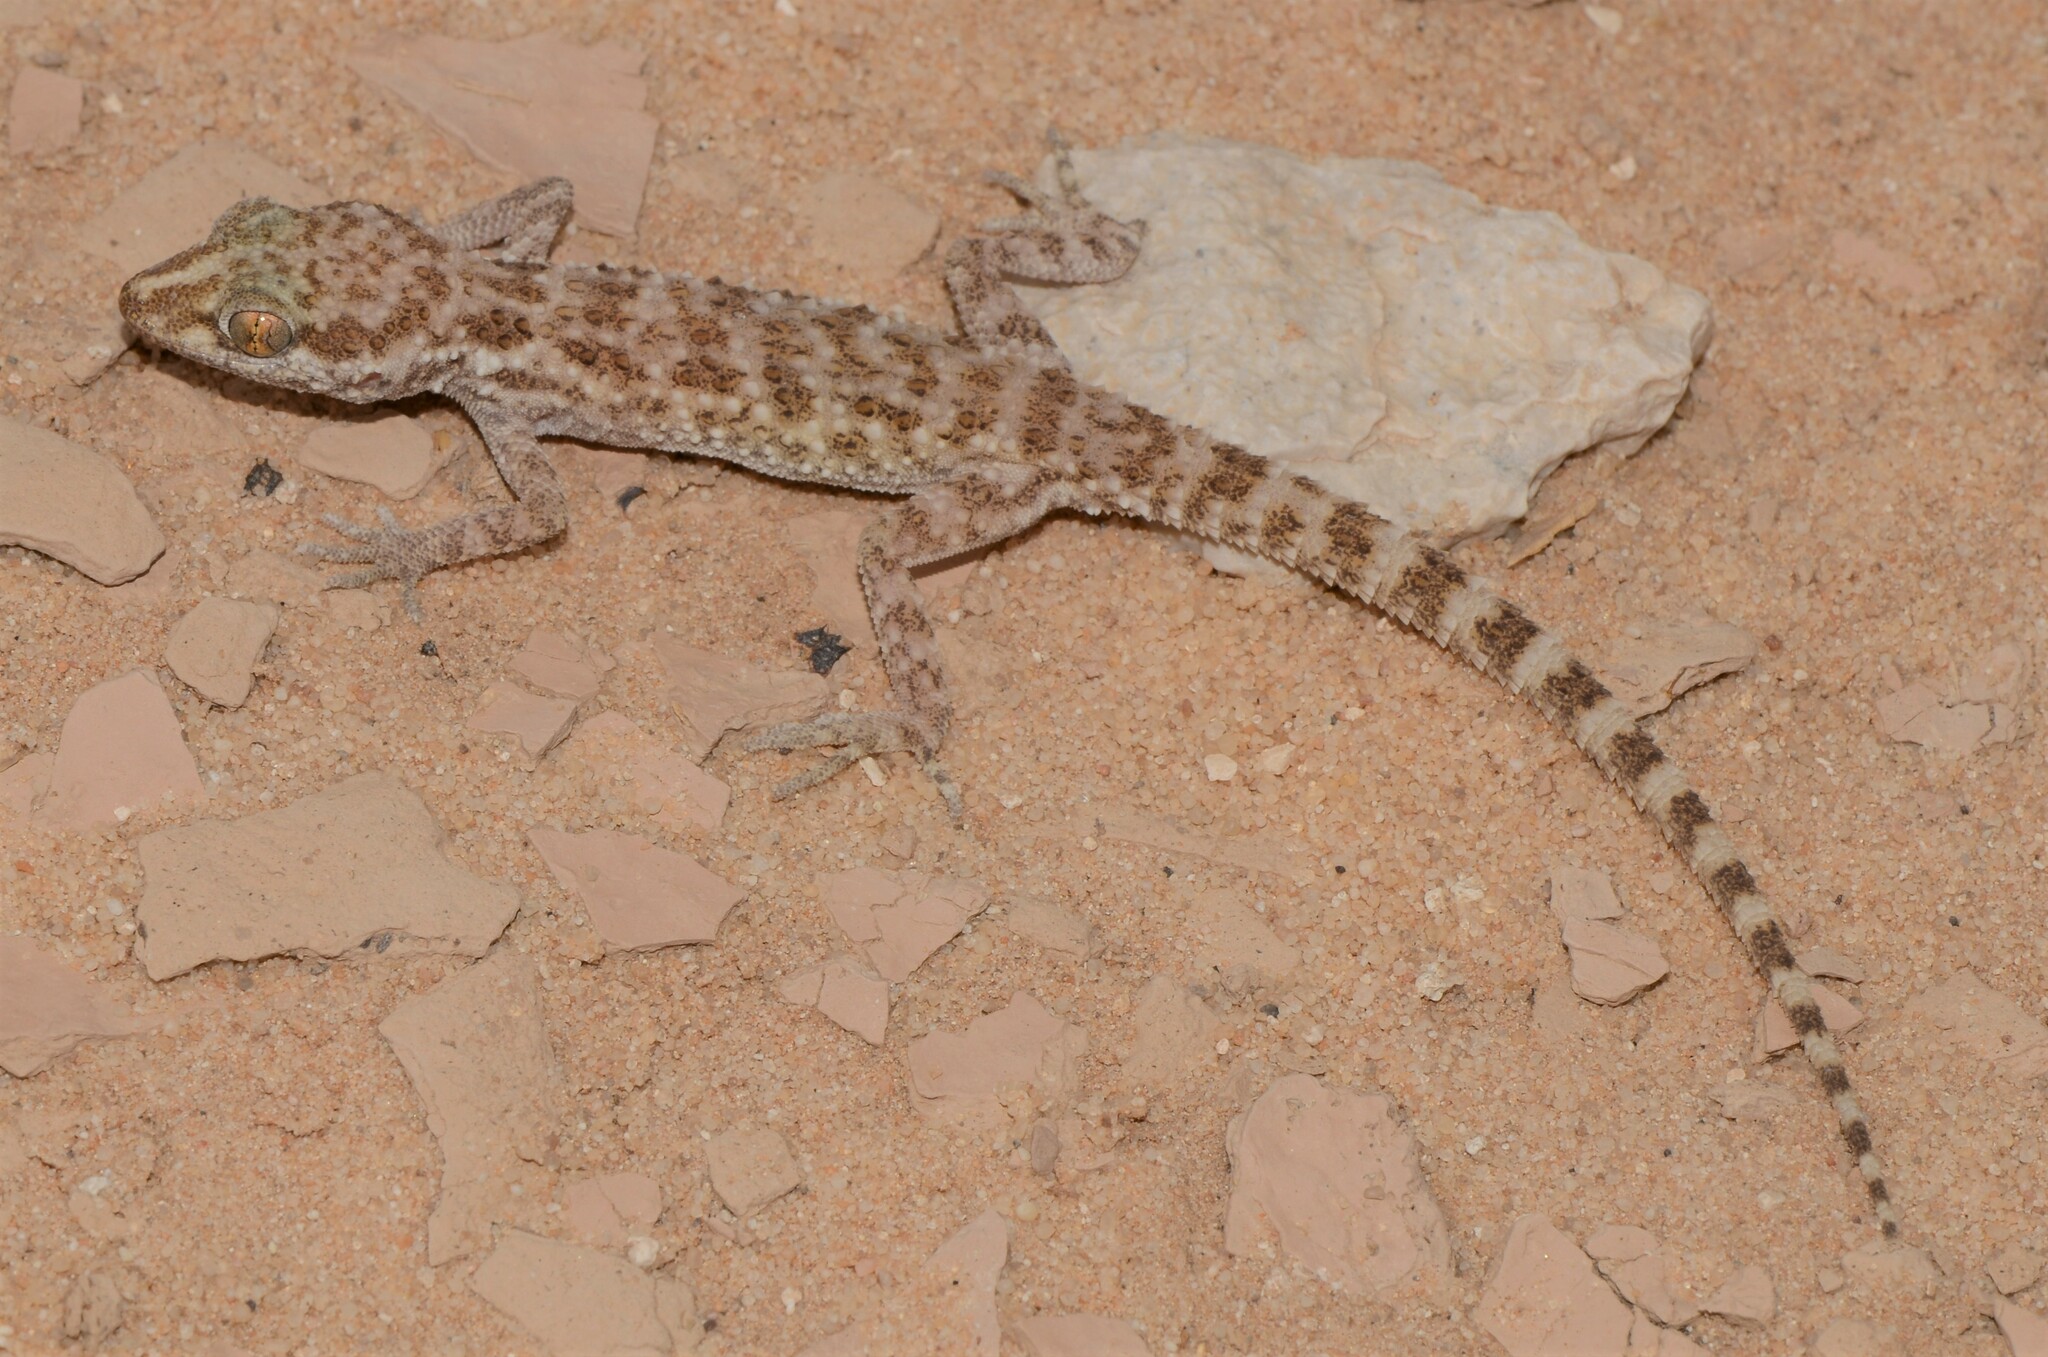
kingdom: Animalia
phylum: Chordata
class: Squamata
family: Gekkonidae
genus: Bunopus
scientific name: Bunopus tuberculatus
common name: Southern tuberculated gecko
